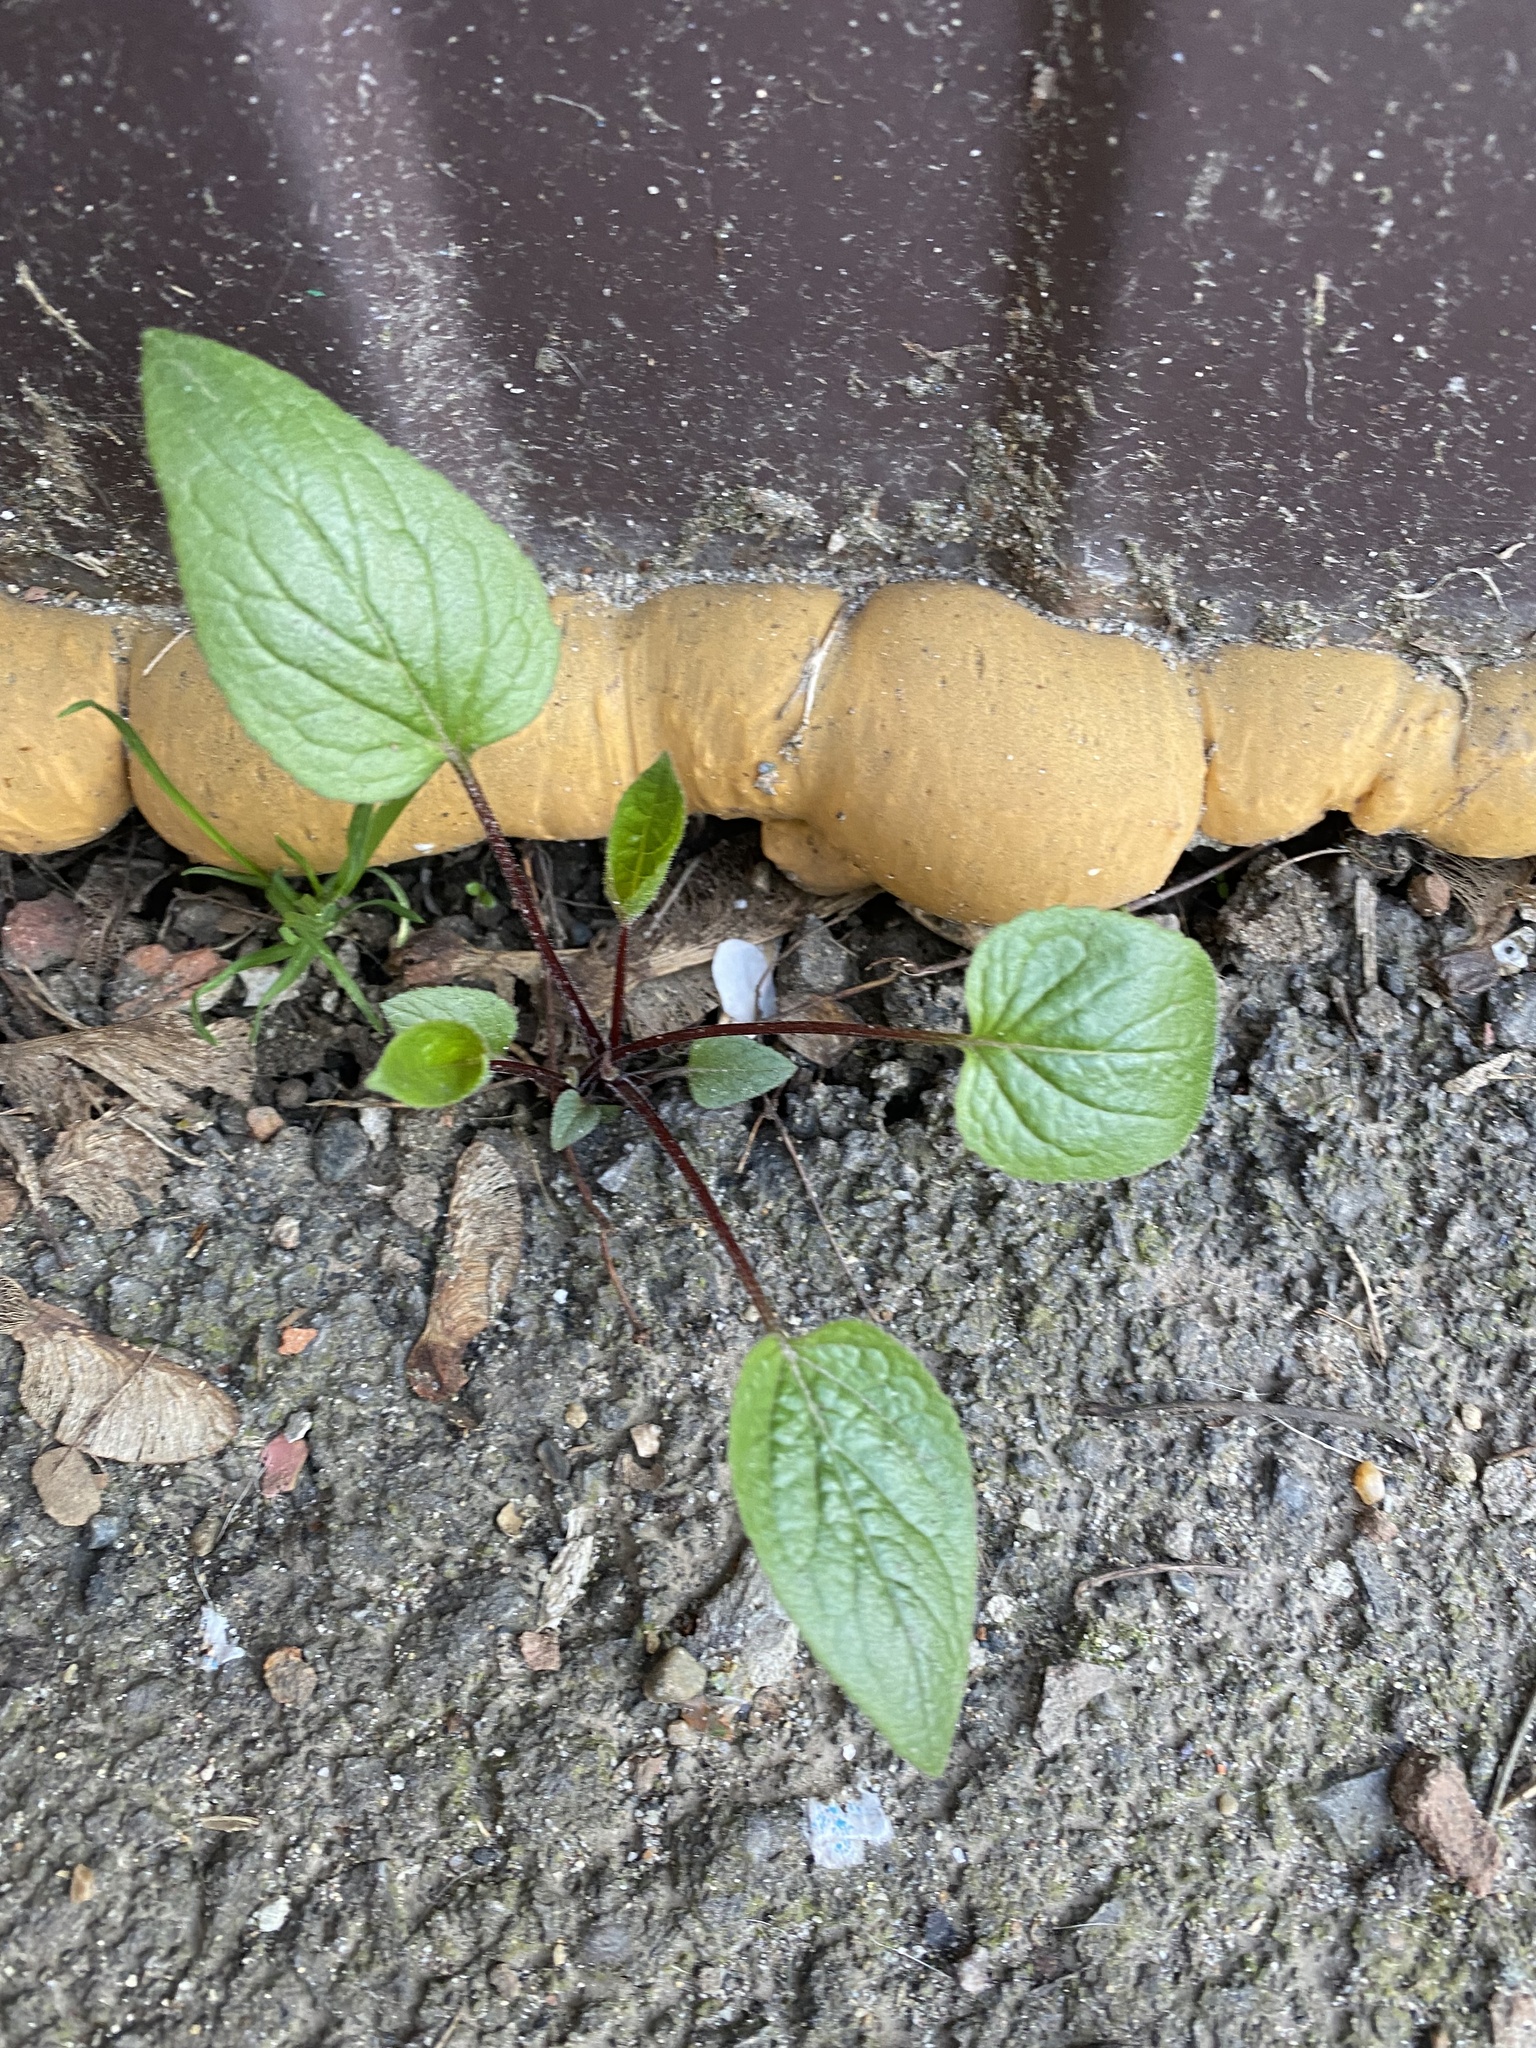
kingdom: Plantae
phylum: Tracheophyta
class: Magnoliopsida
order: Asterales
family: Campanulaceae
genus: Campanula
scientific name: Campanula rapunculoides
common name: Creeping bellflower
